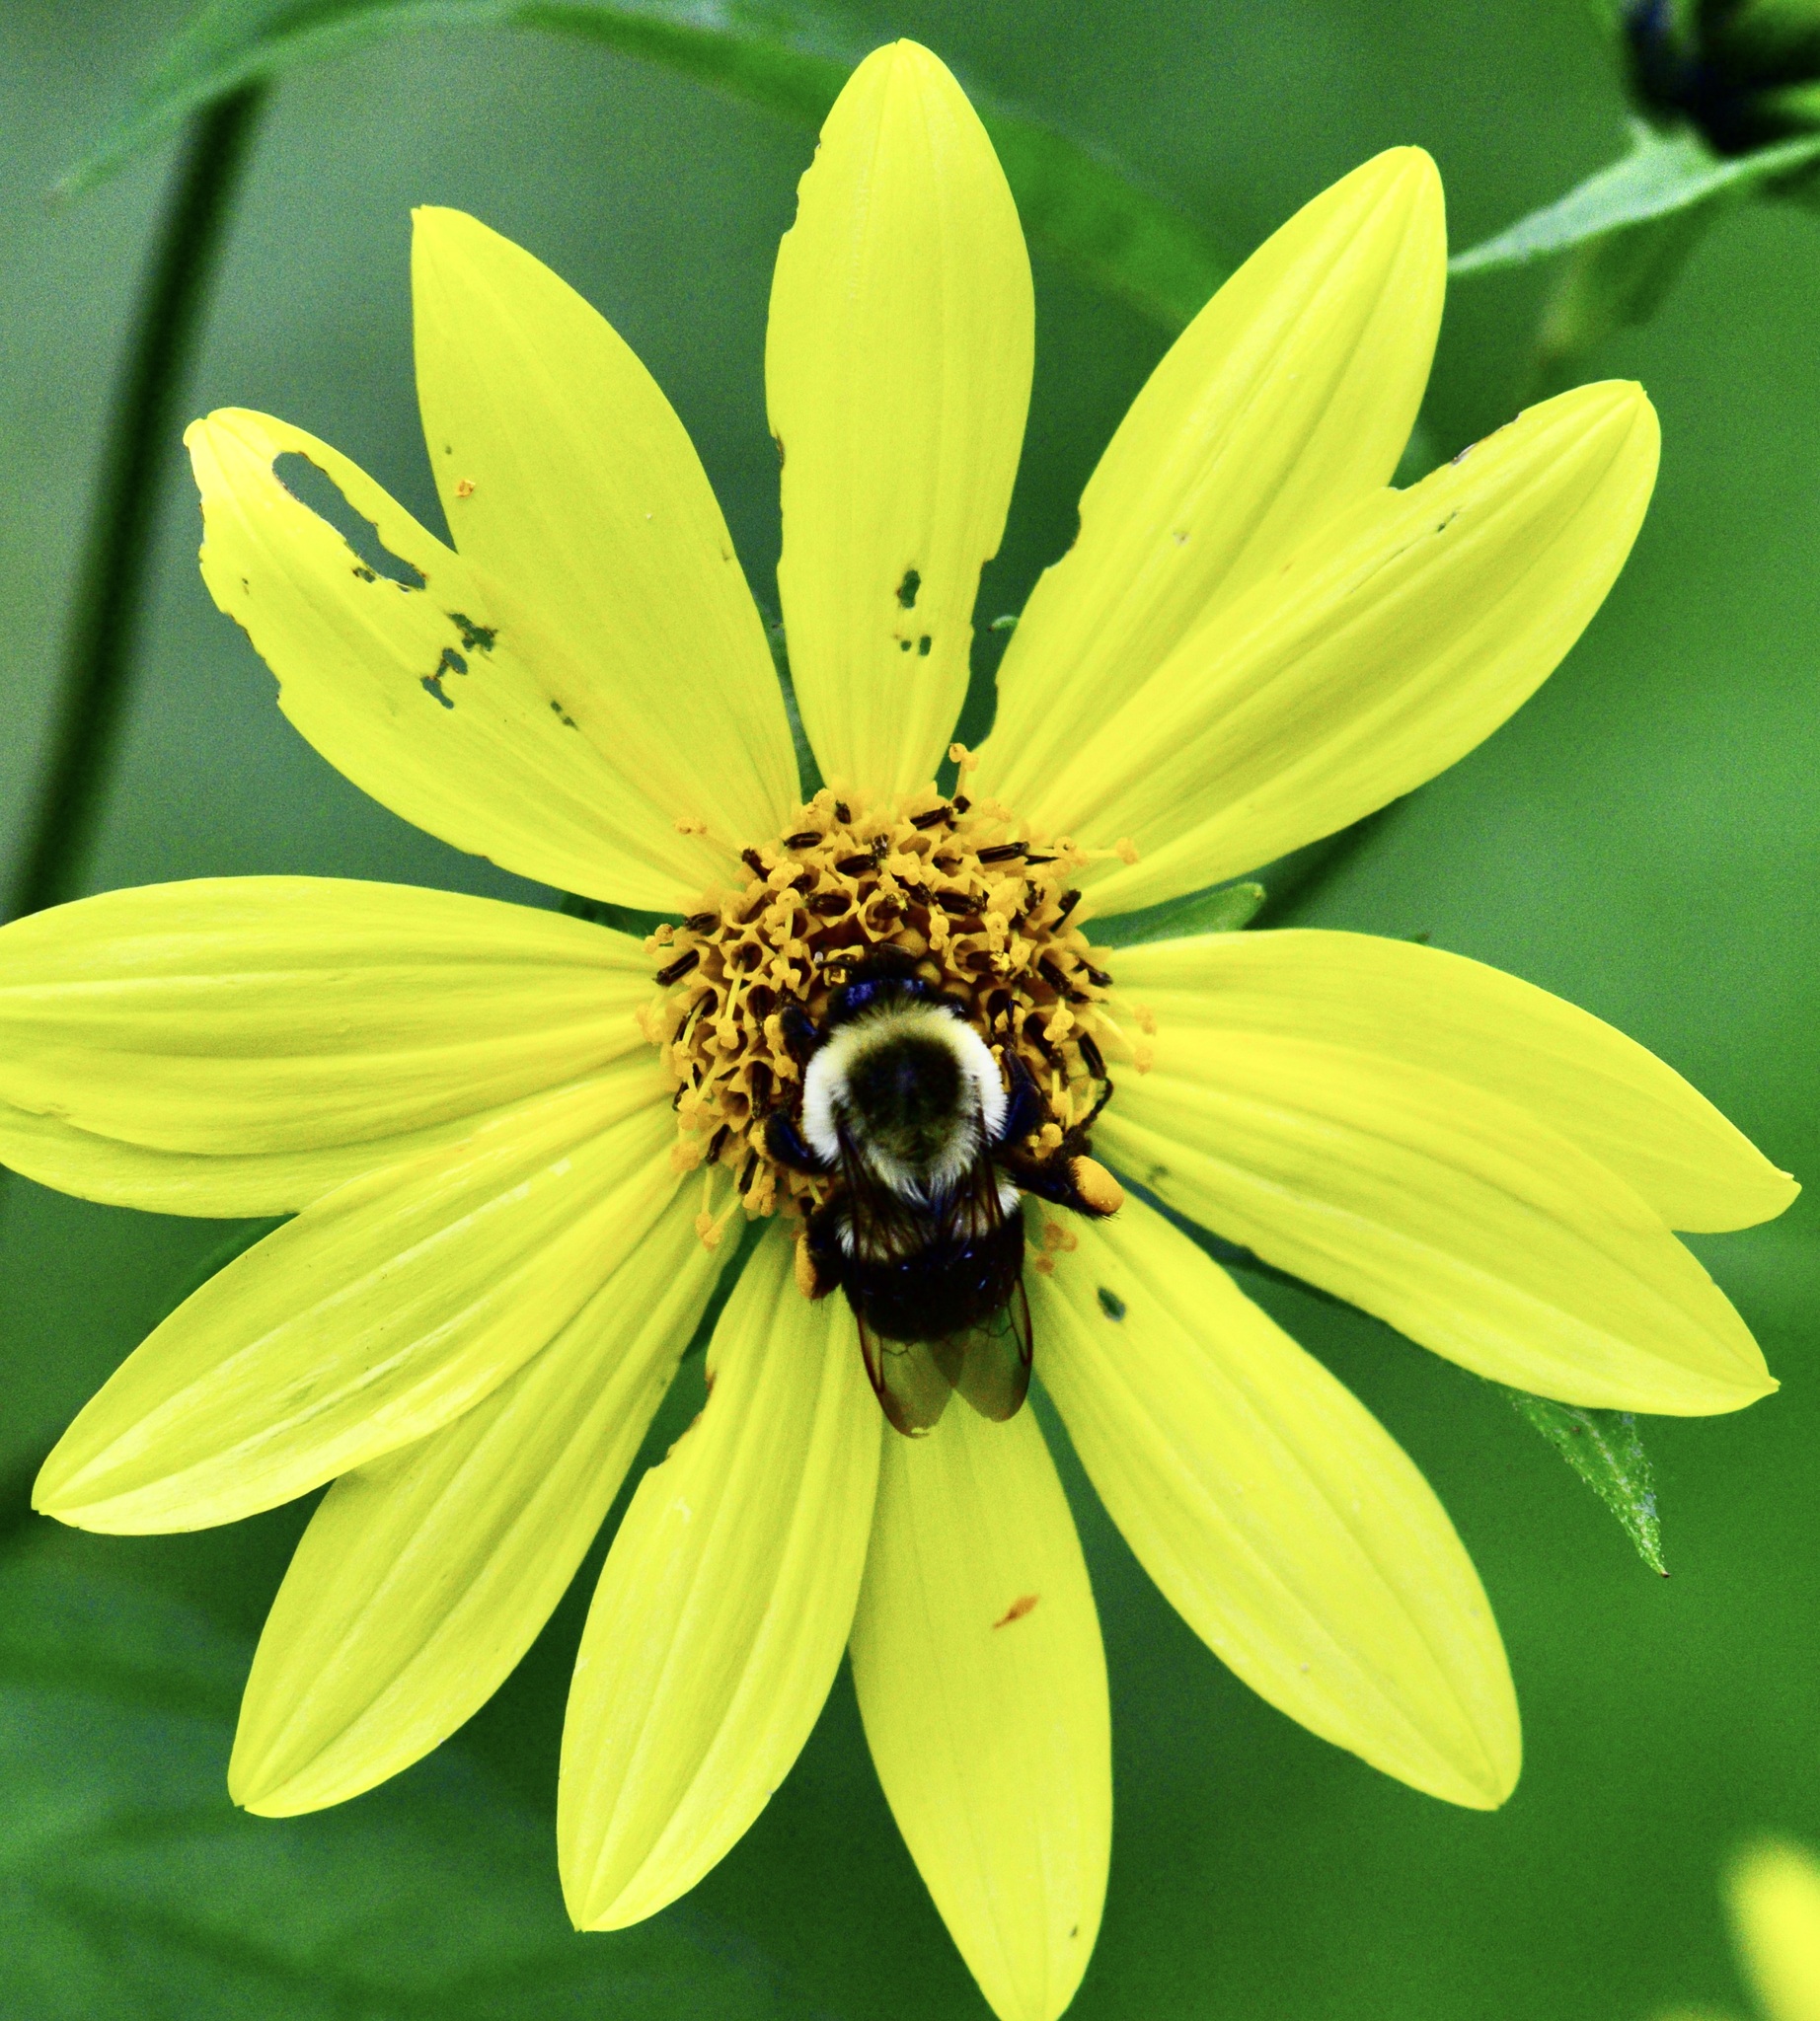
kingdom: Animalia
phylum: Arthropoda
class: Insecta
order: Hymenoptera
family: Apidae
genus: Bombus
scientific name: Bombus impatiens
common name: Common eastern bumble bee
